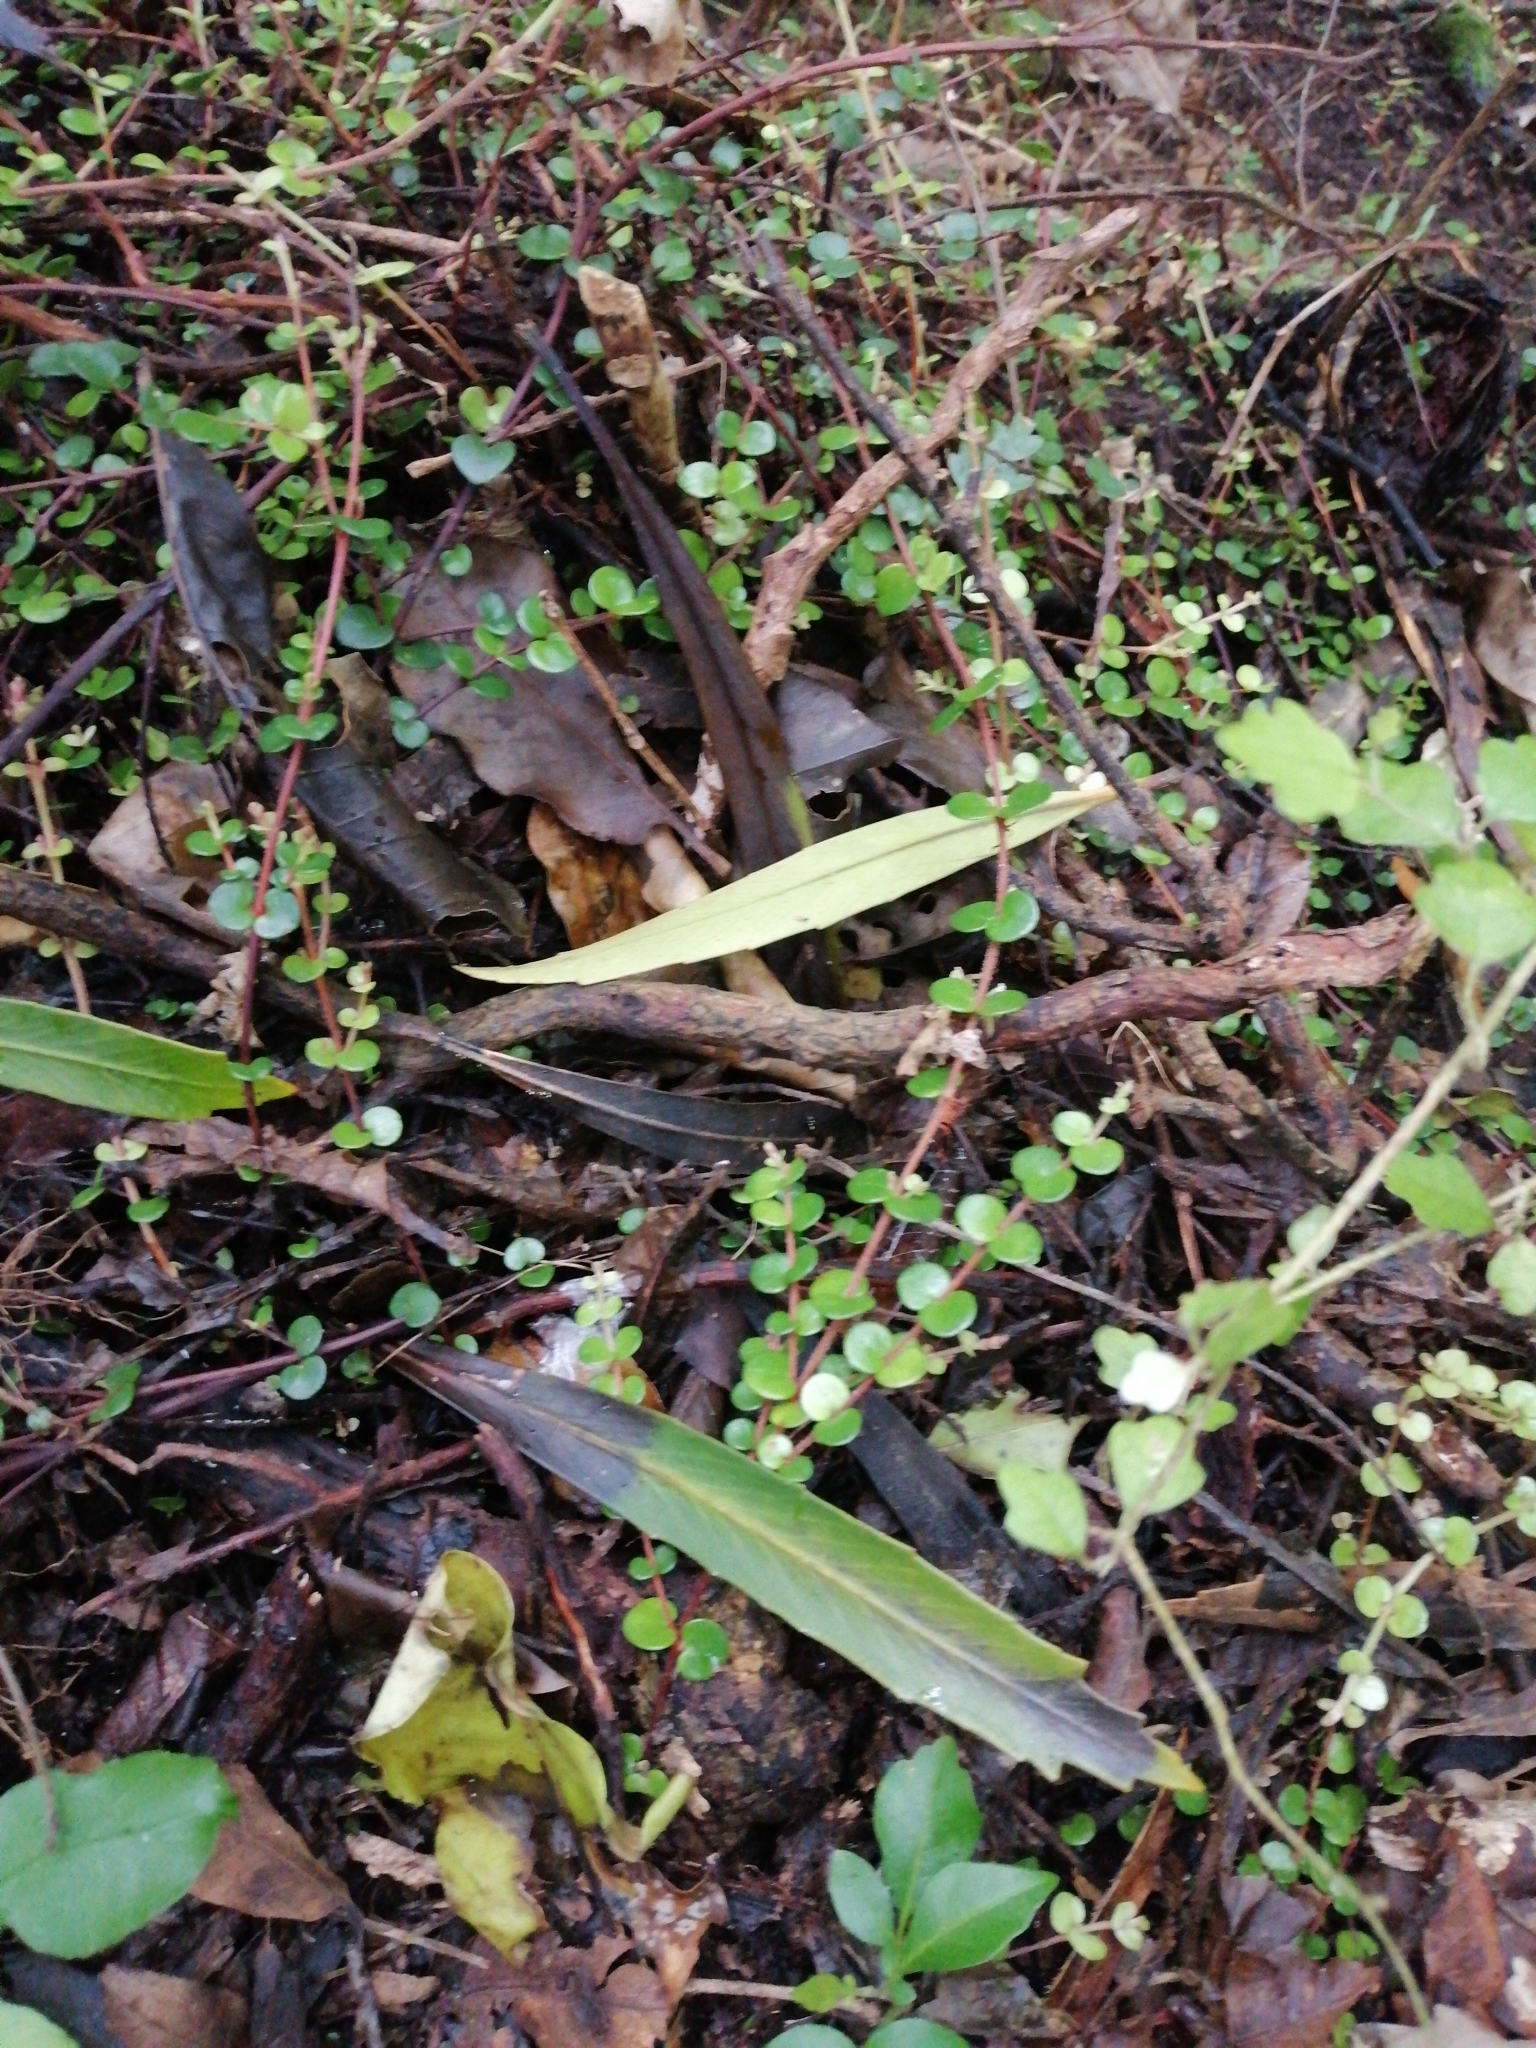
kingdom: Plantae
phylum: Tracheophyta
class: Magnoliopsida
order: Apiales
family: Araliaceae
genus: Pseudopanax
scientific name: Pseudopanax crassifolius
